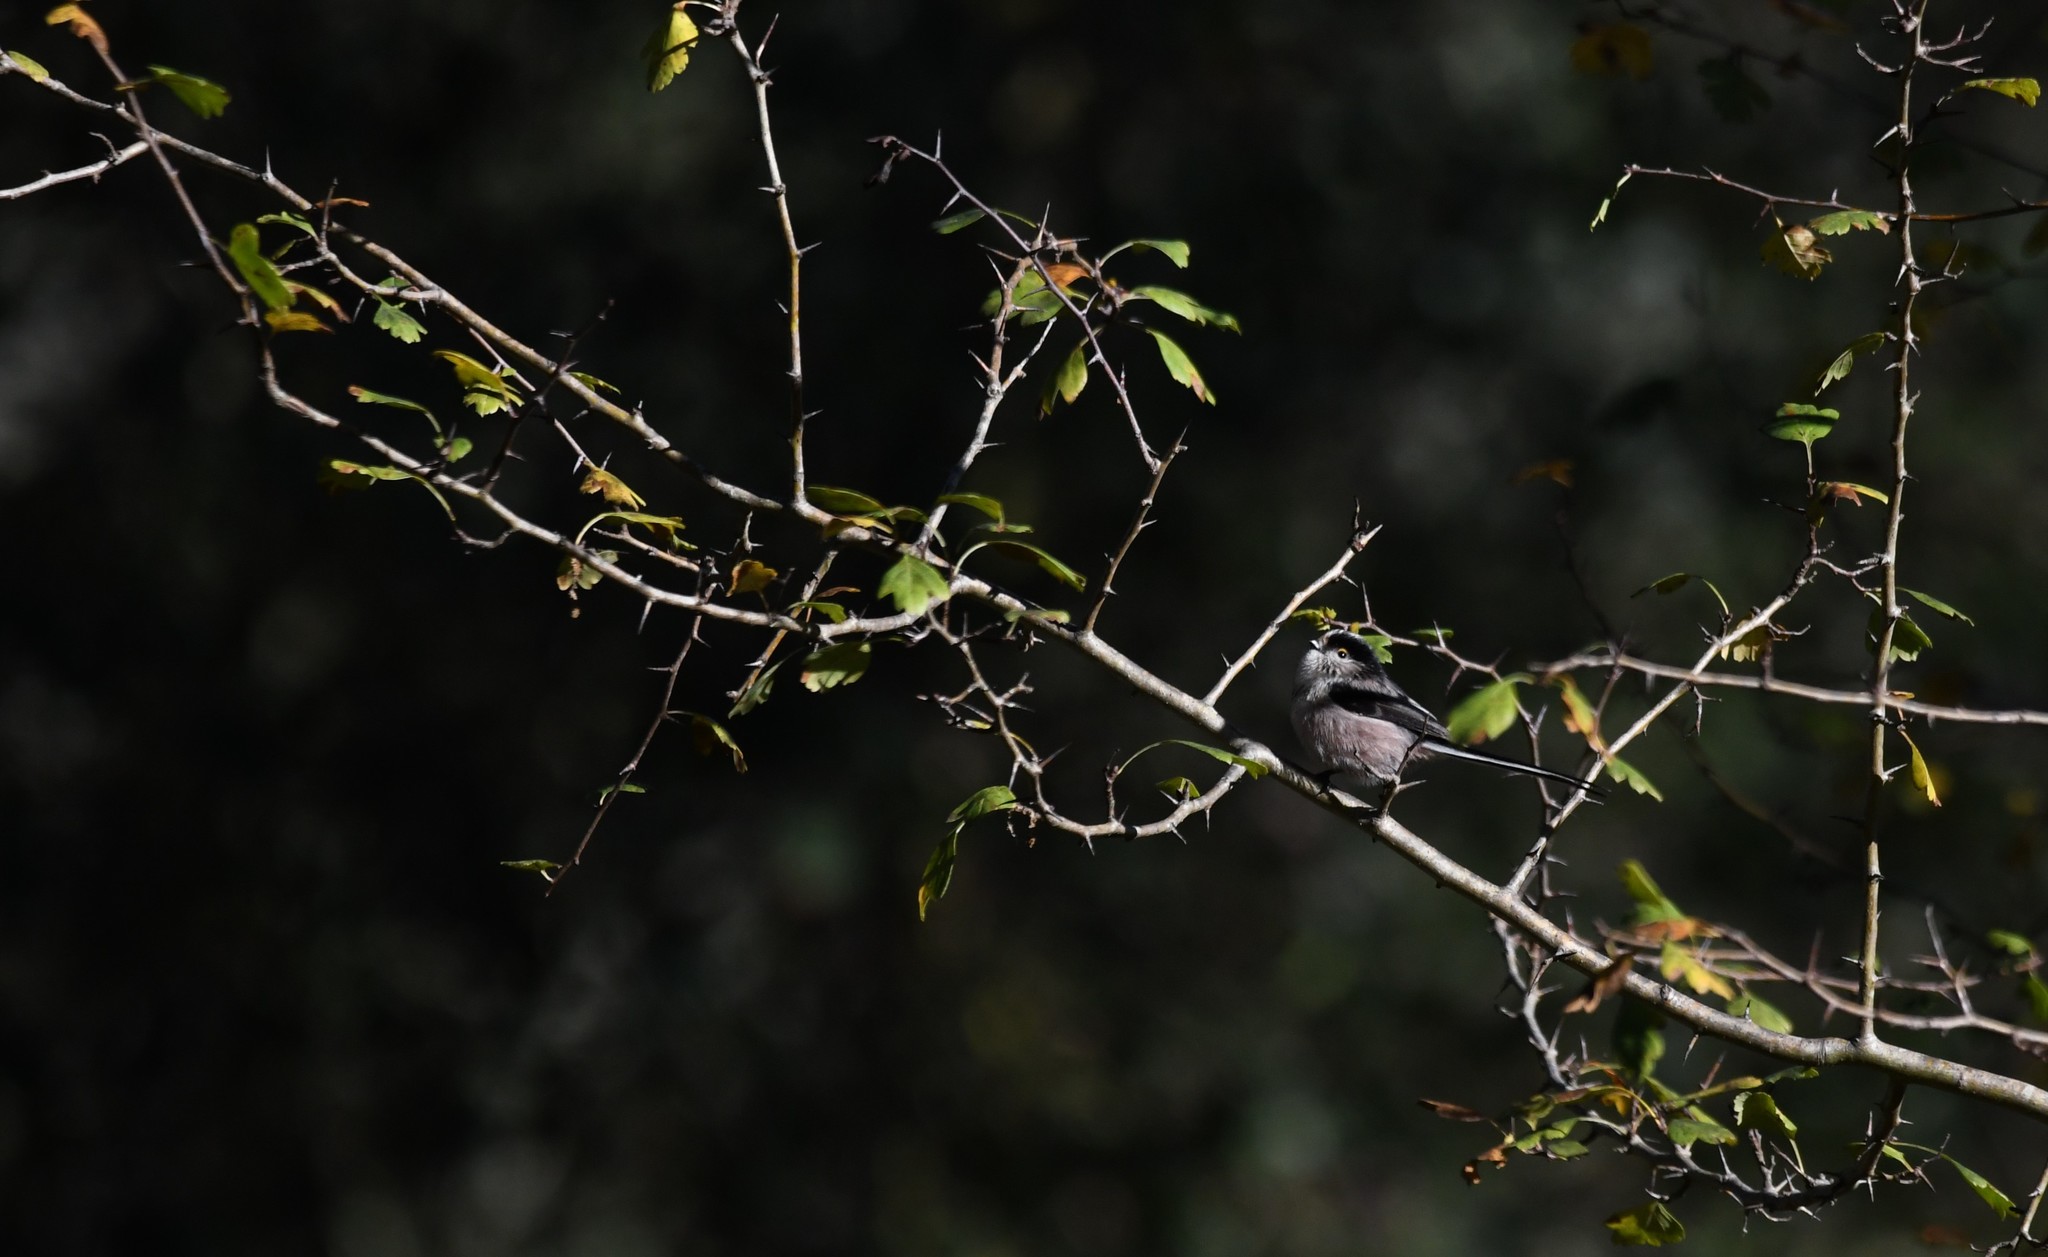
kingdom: Animalia
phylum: Chordata
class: Aves
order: Passeriformes
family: Aegithalidae
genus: Aegithalos
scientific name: Aegithalos caudatus
